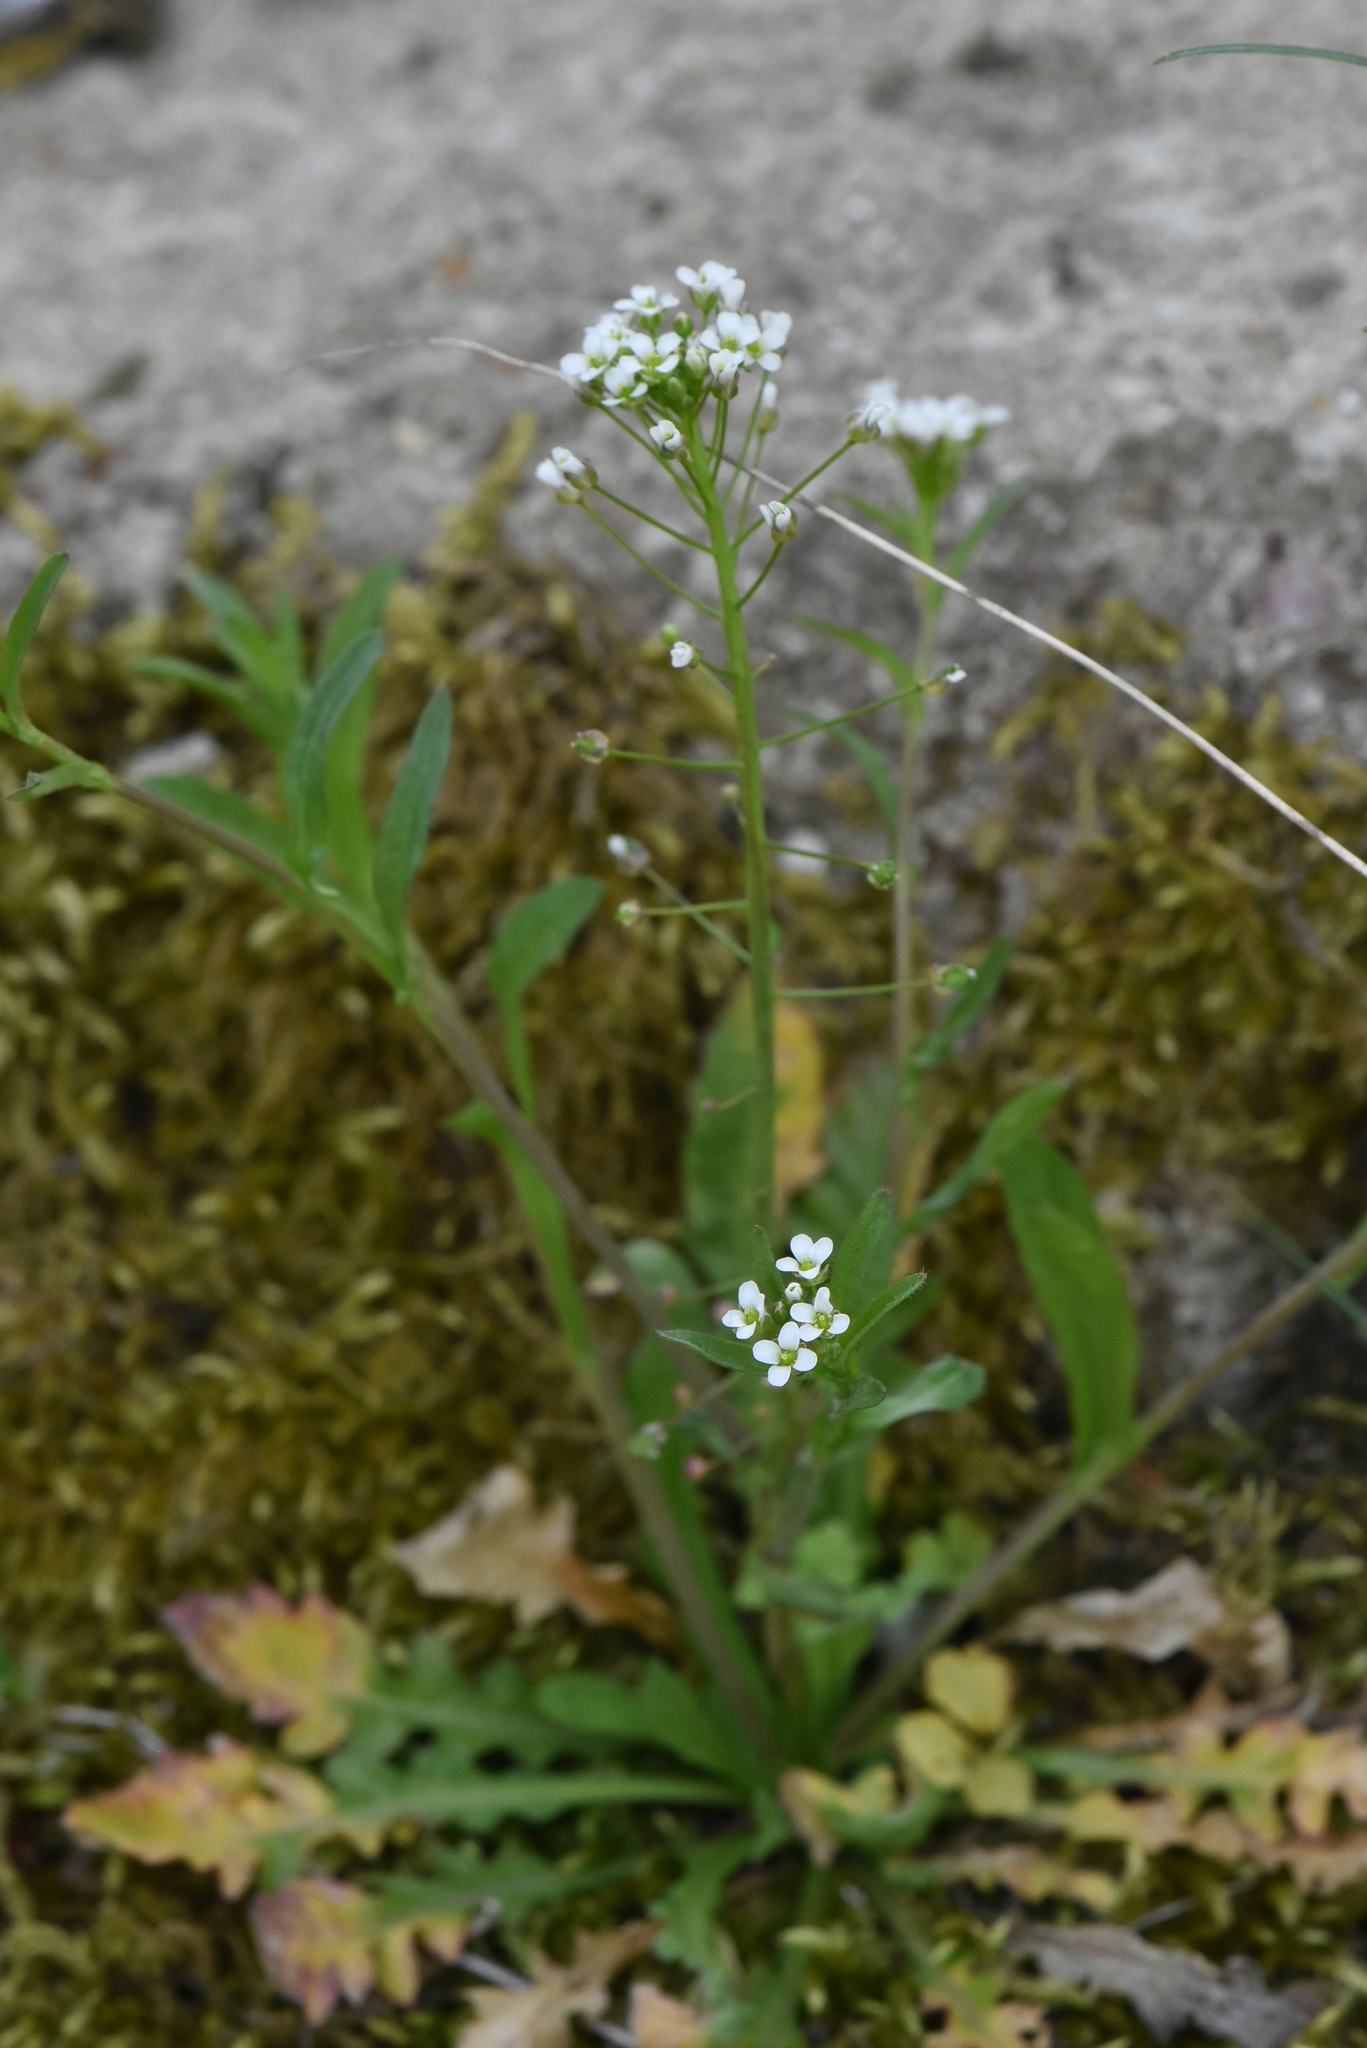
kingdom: Plantae
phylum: Tracheophyta
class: Magnoliopsida
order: Brassicales
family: Brassicaceae
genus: Capsella
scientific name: Capsella bursa-pastoris
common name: Shepherd's purse
